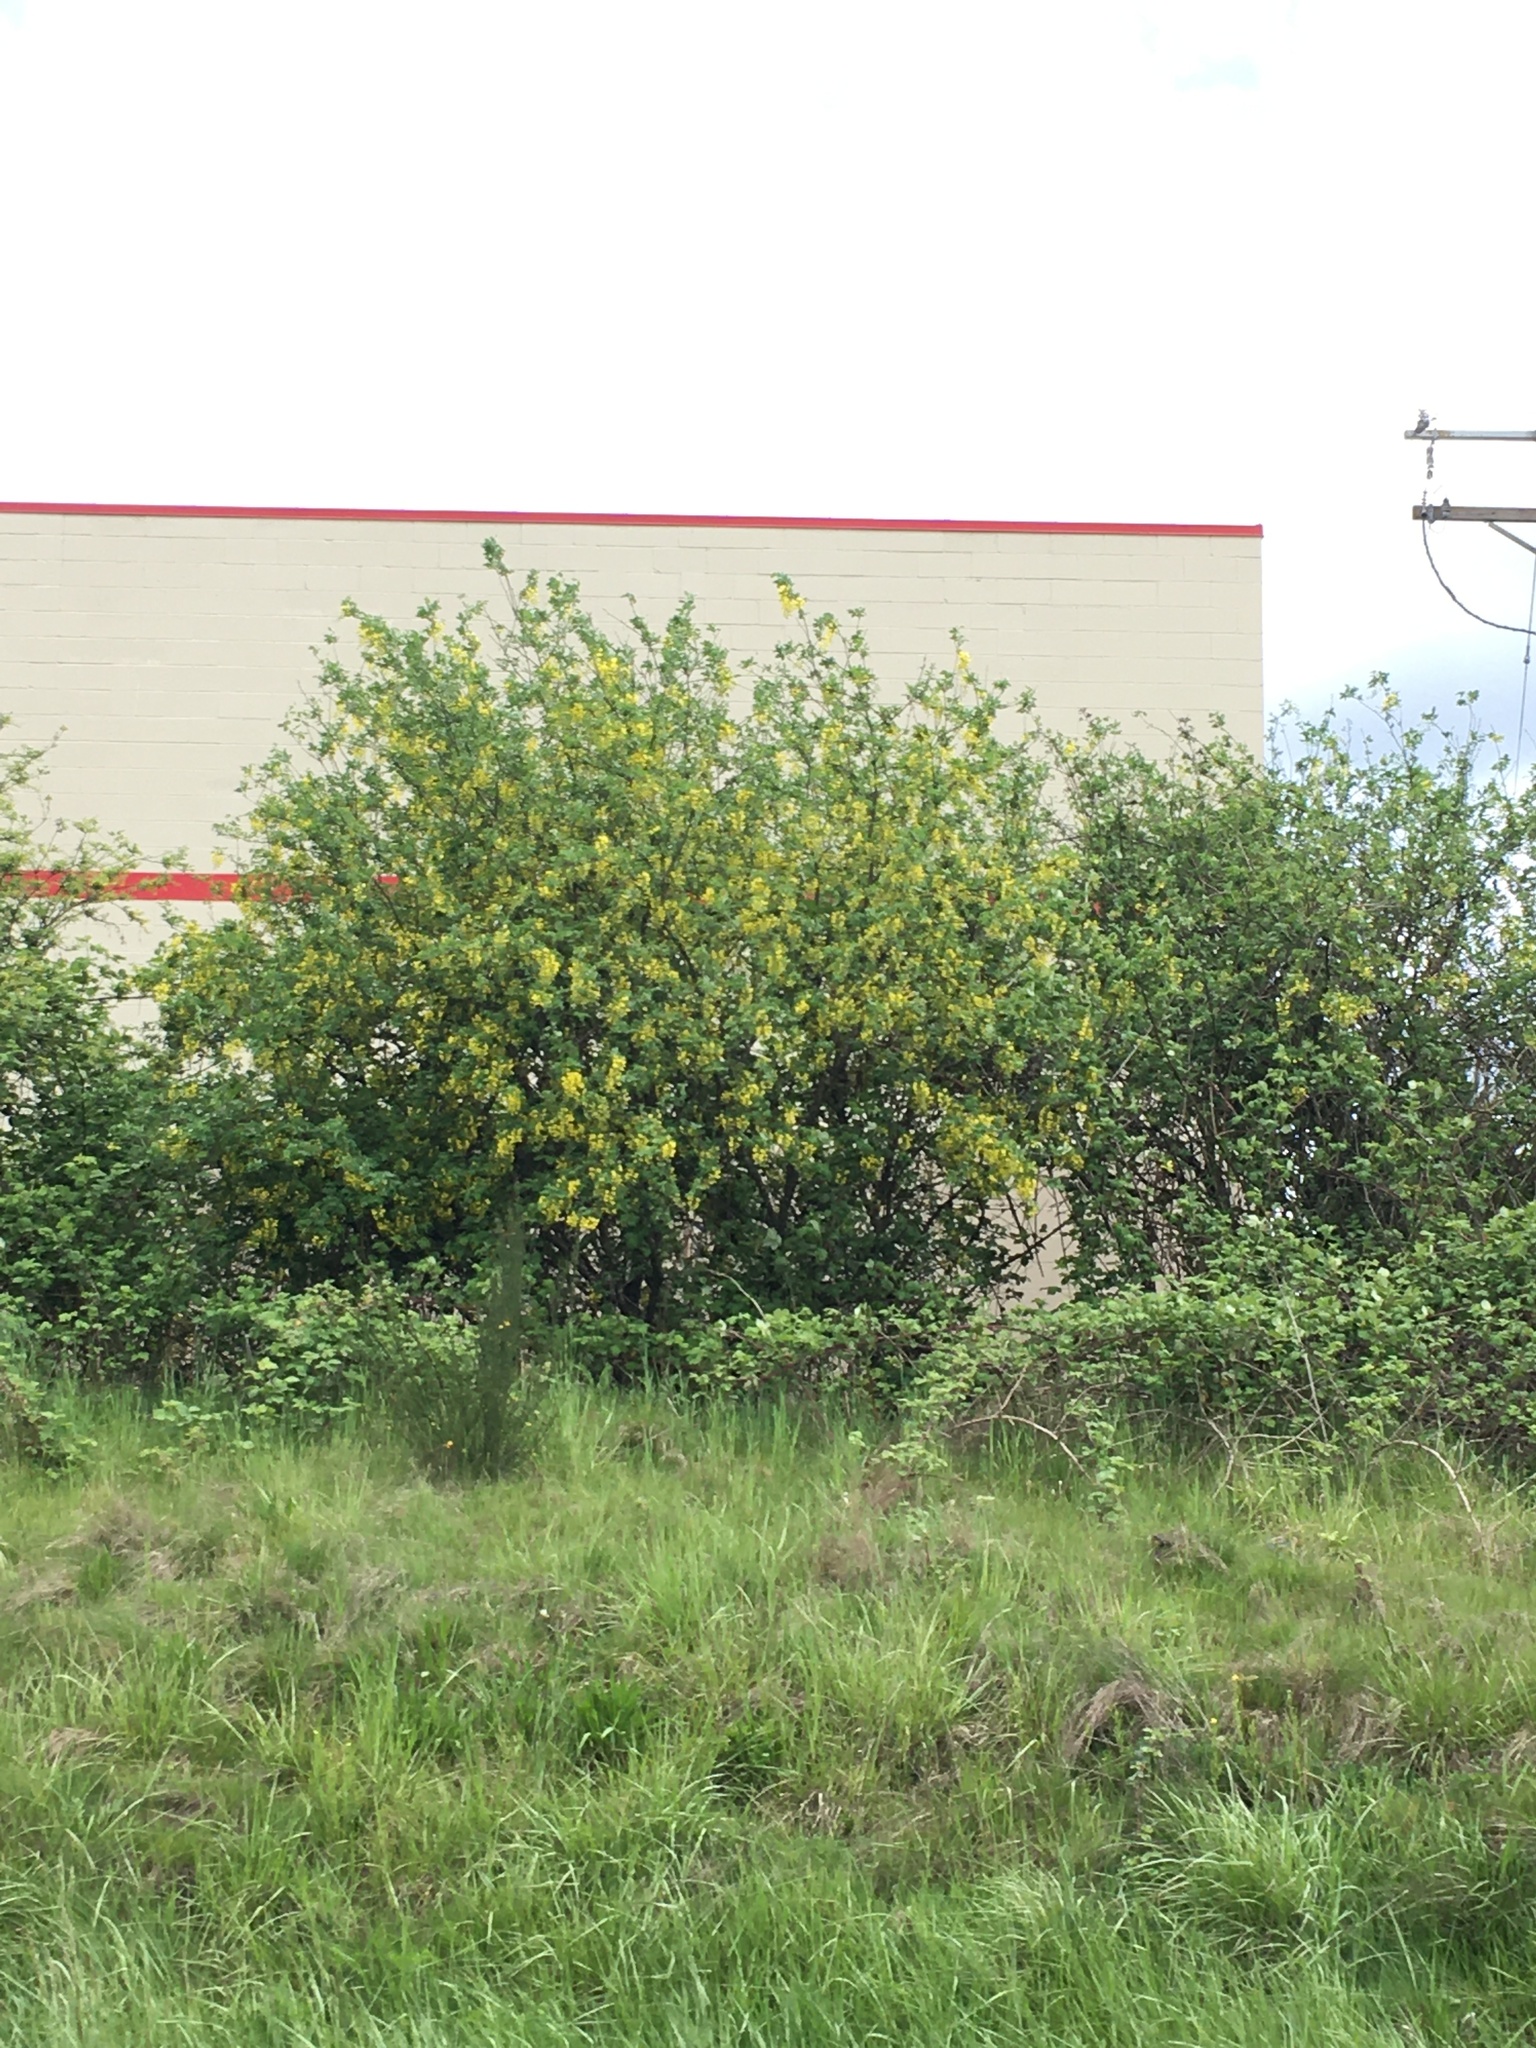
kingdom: Plantae
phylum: Tracheophyta
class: Magnoliopsida
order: Fabales
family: Fabaceae
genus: Laburnum
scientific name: Laburnum anagyroides
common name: Laburnum
